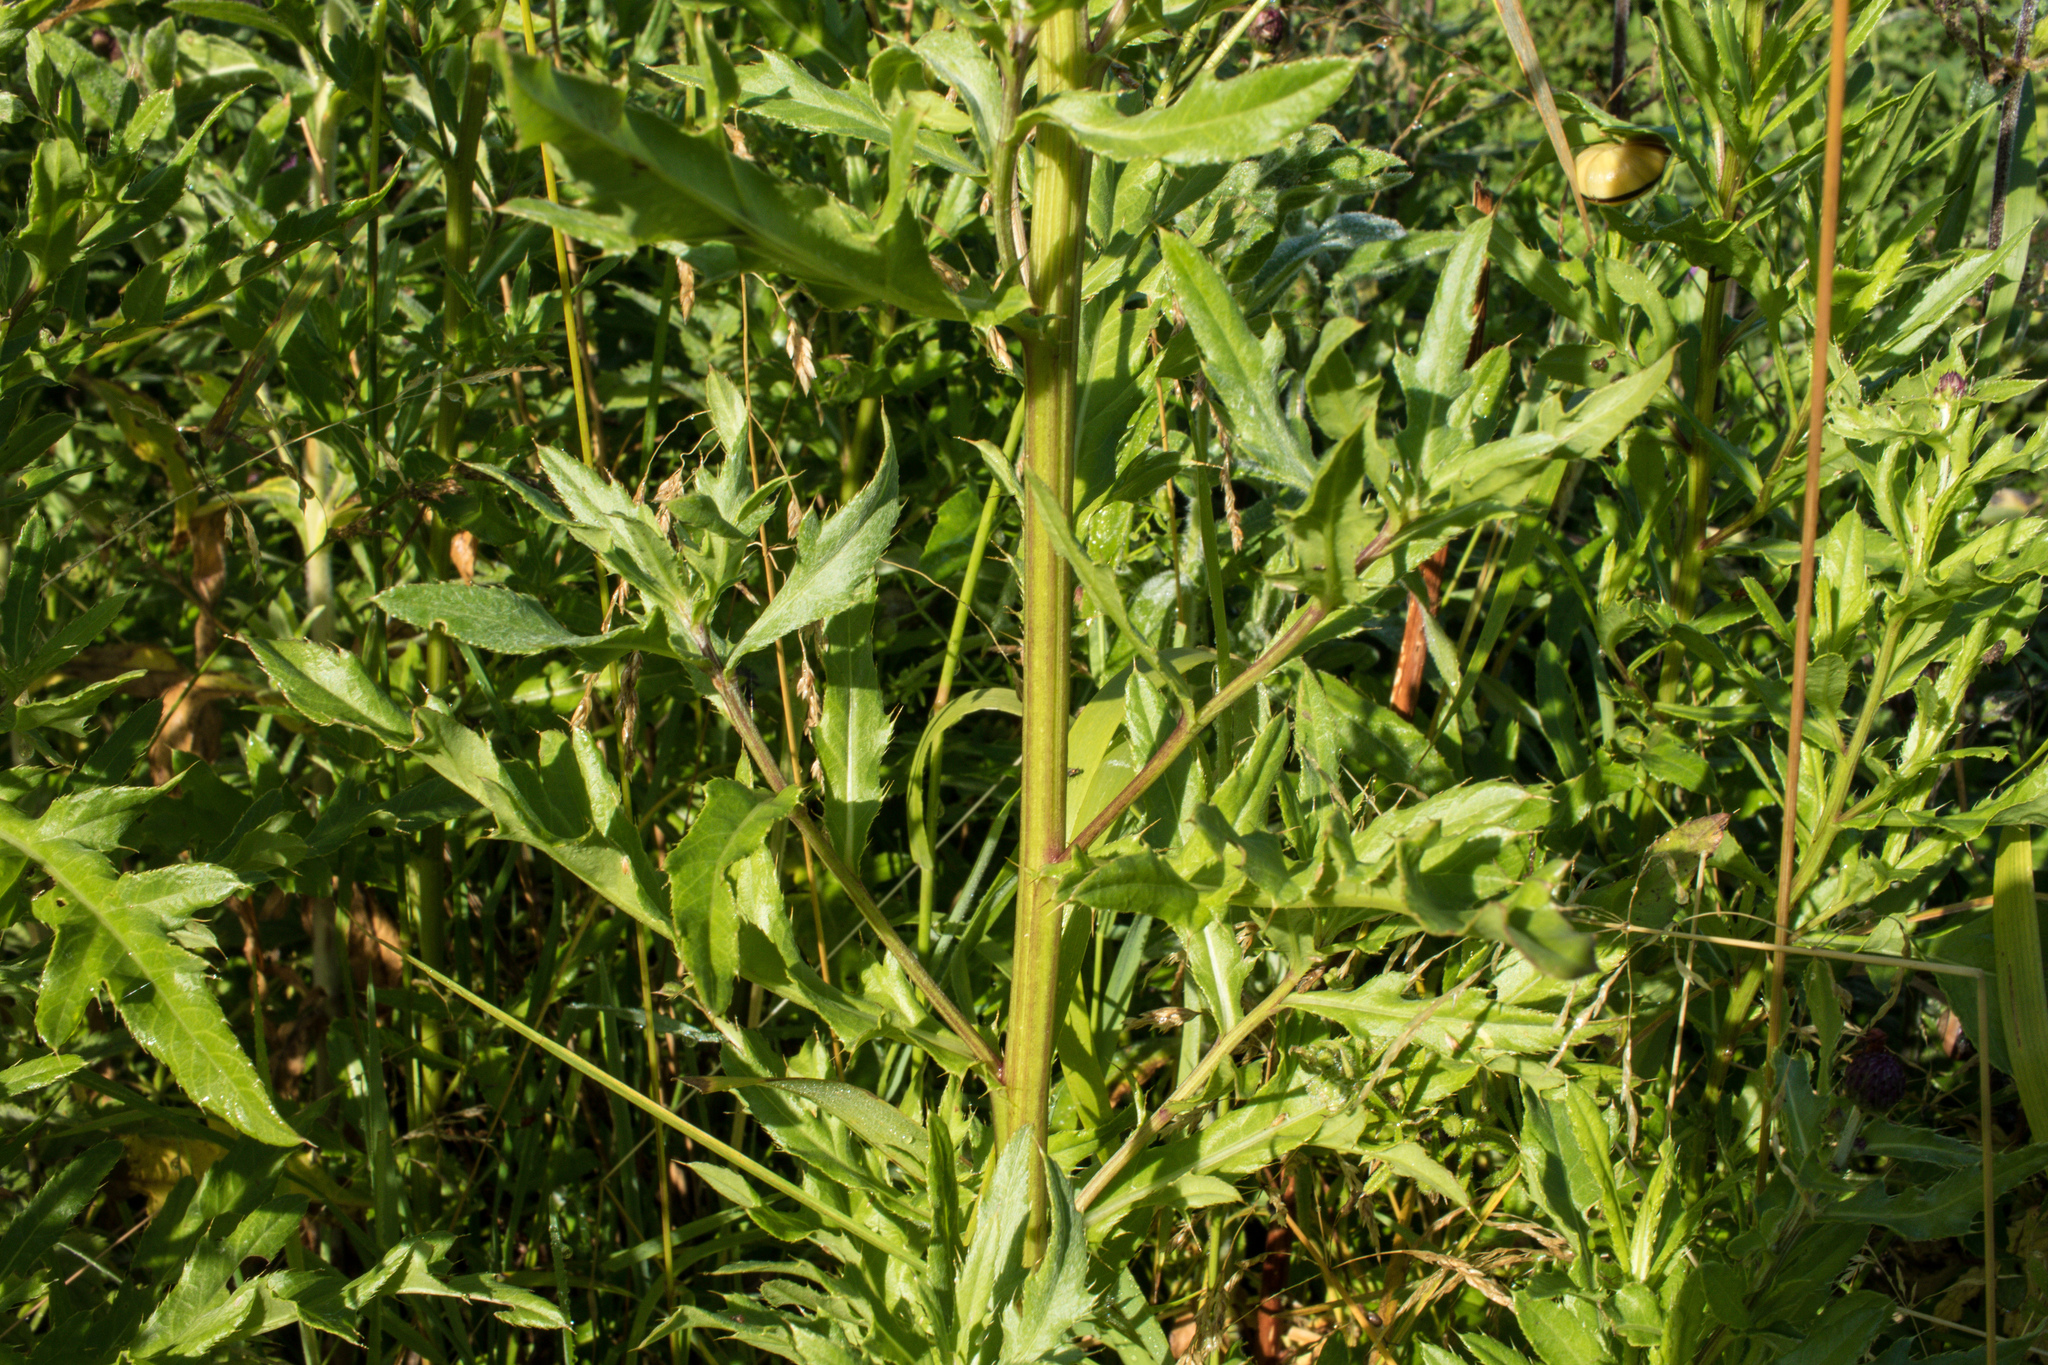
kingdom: Plantae
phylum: Tracheophyta
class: Magnoliopsida
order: Asterales
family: Asteraceae
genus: Cirsium
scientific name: Cirsium arvense
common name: Creeping thistle
